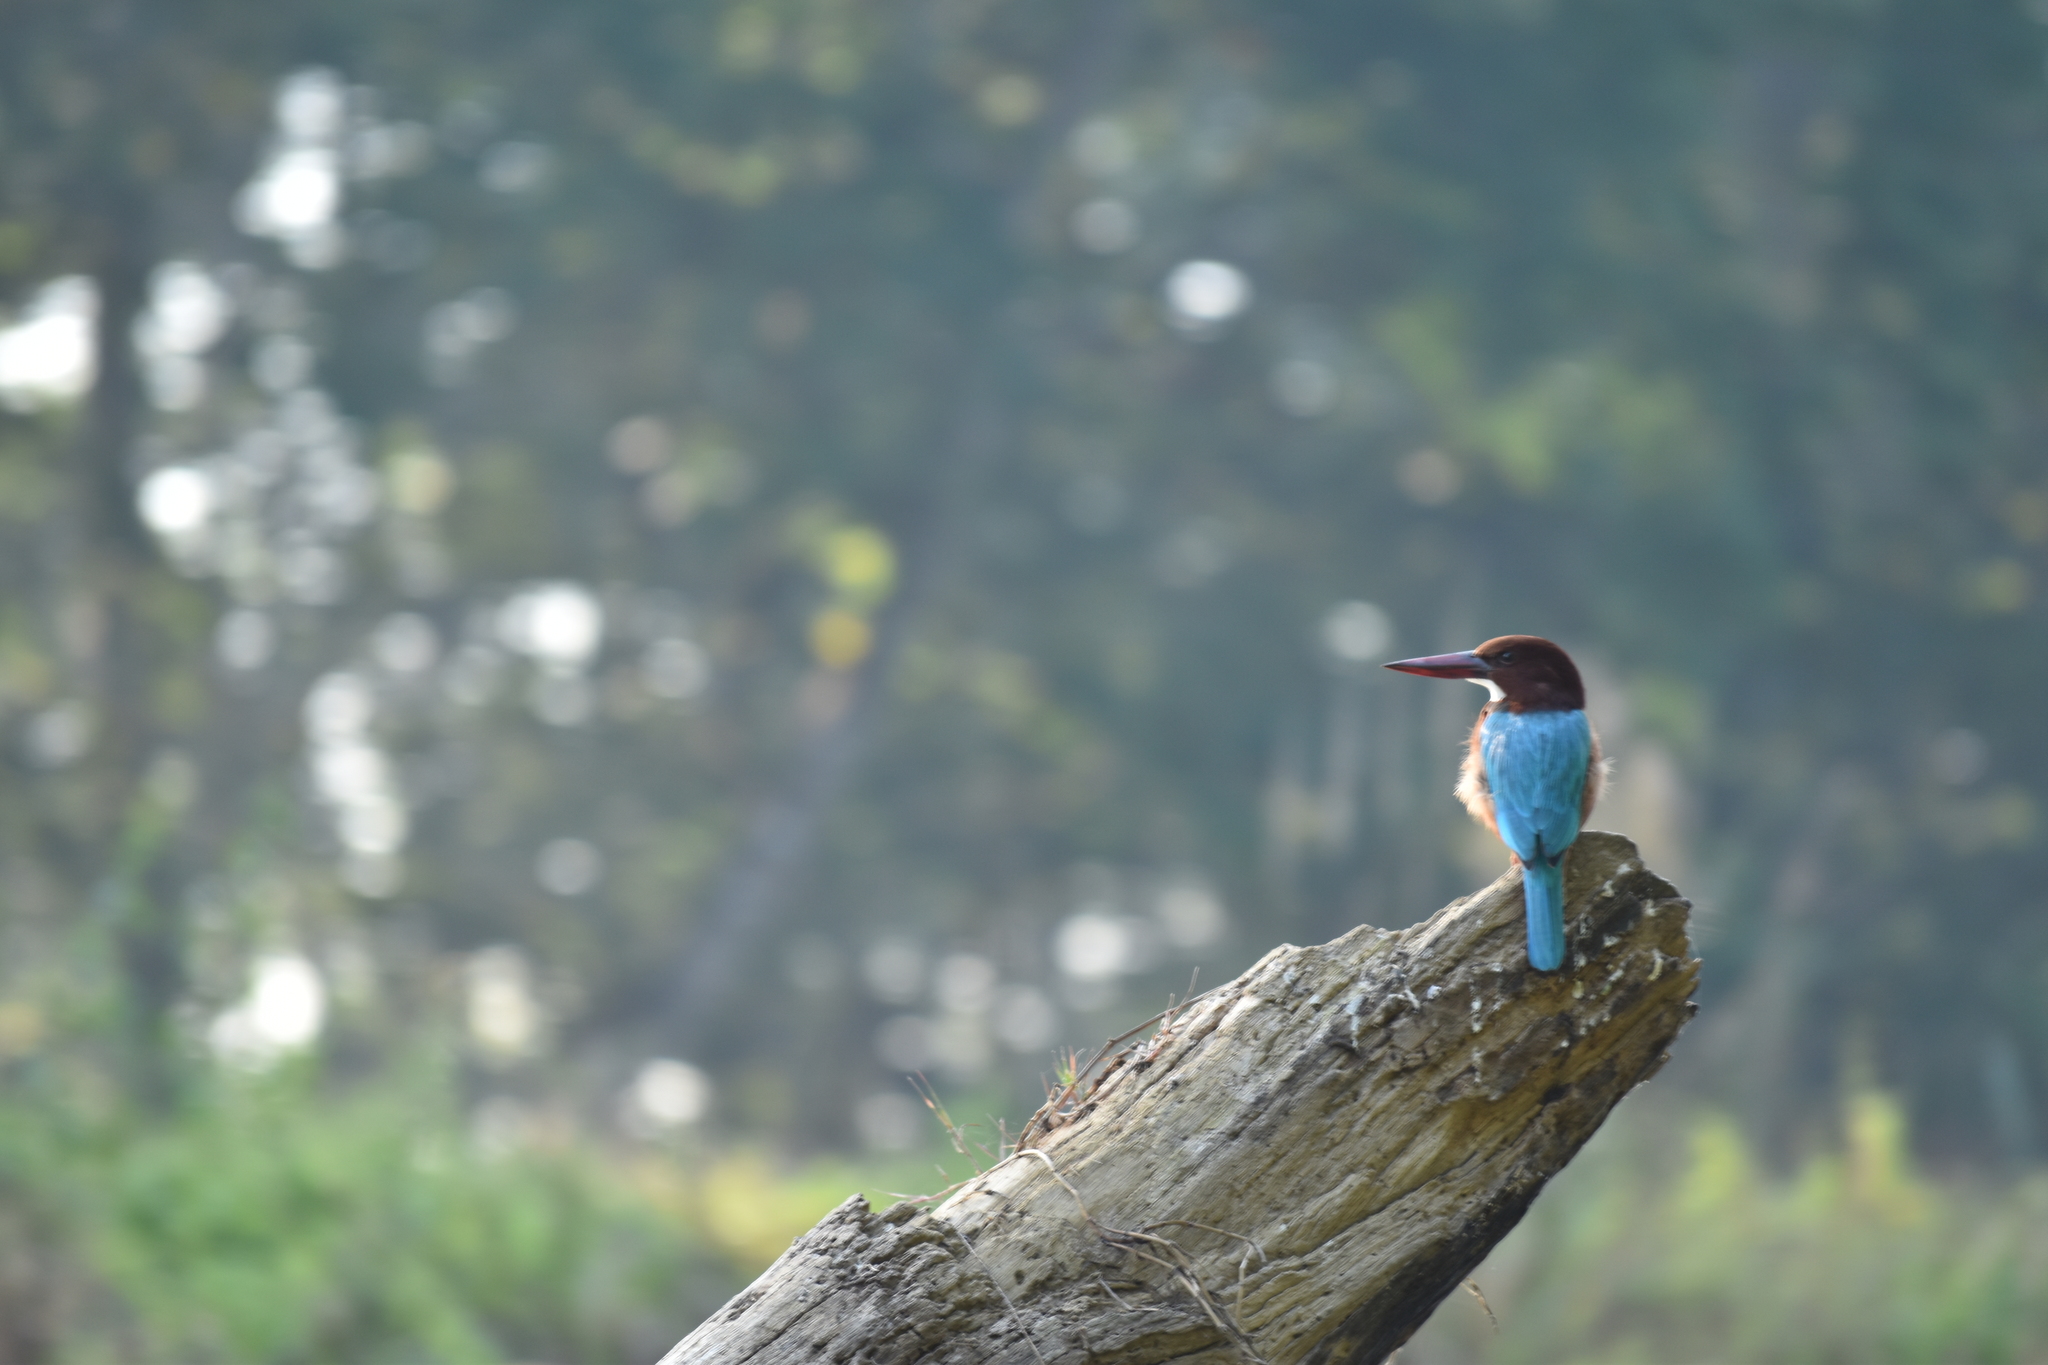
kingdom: Animalia
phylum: Chordata
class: Aves
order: Coraciiformes
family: Alcedinidae
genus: Halcyon
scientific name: Halcyon smyrnensis
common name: White-throated kingfisher
